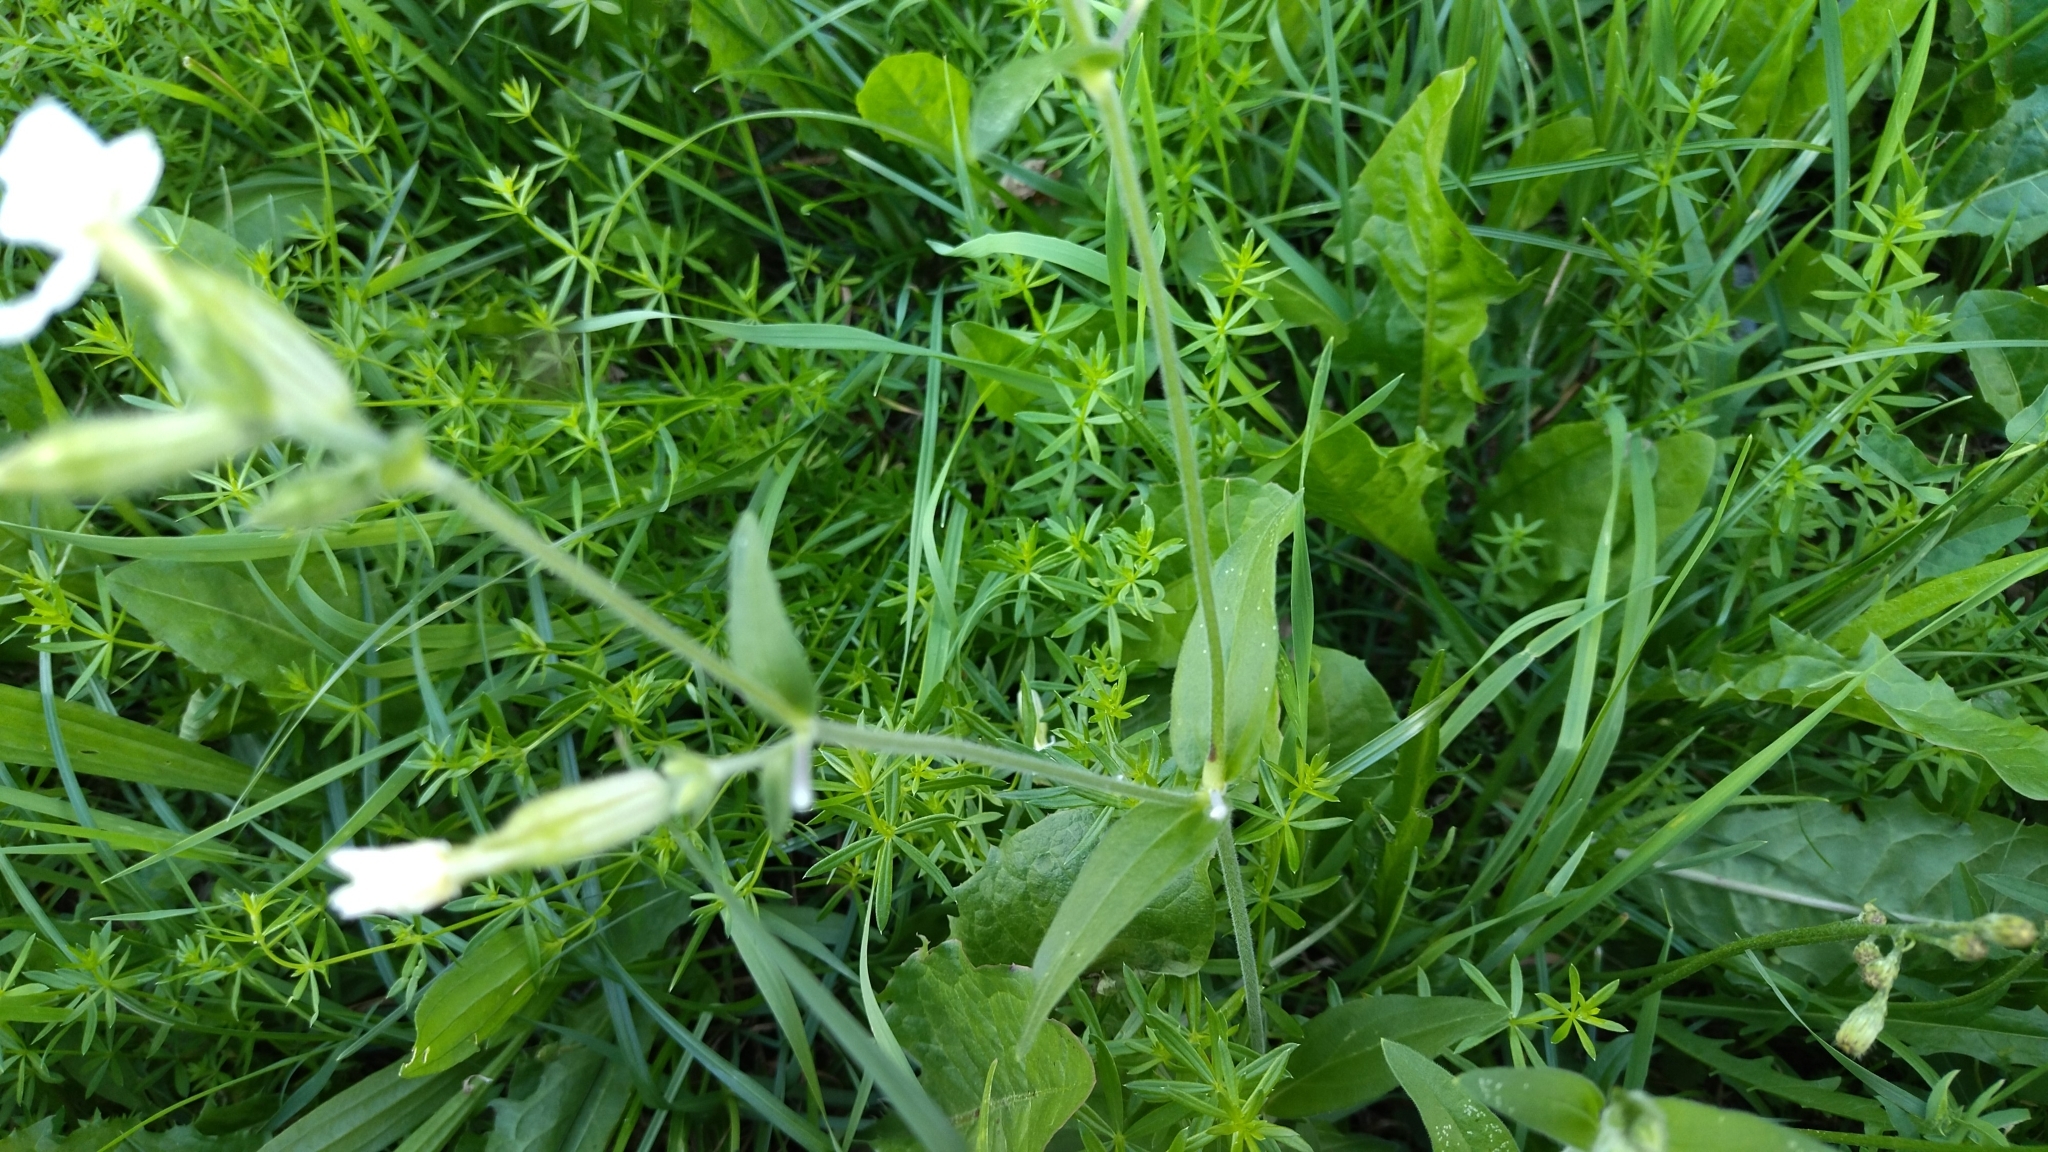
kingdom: Plantae
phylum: Tracheophyta
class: Magnoliopsida
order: Caryophyllales
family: Caryophyllaceae
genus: Silene
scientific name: Silene latifolia
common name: White campion
